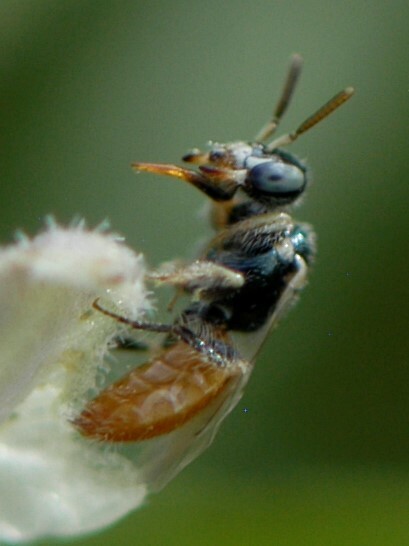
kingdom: Animalia
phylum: Arthropoda
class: Insecta
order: Hymenoptera
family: Andrenidae
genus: Perdita
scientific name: Perdita chamaesarachae
